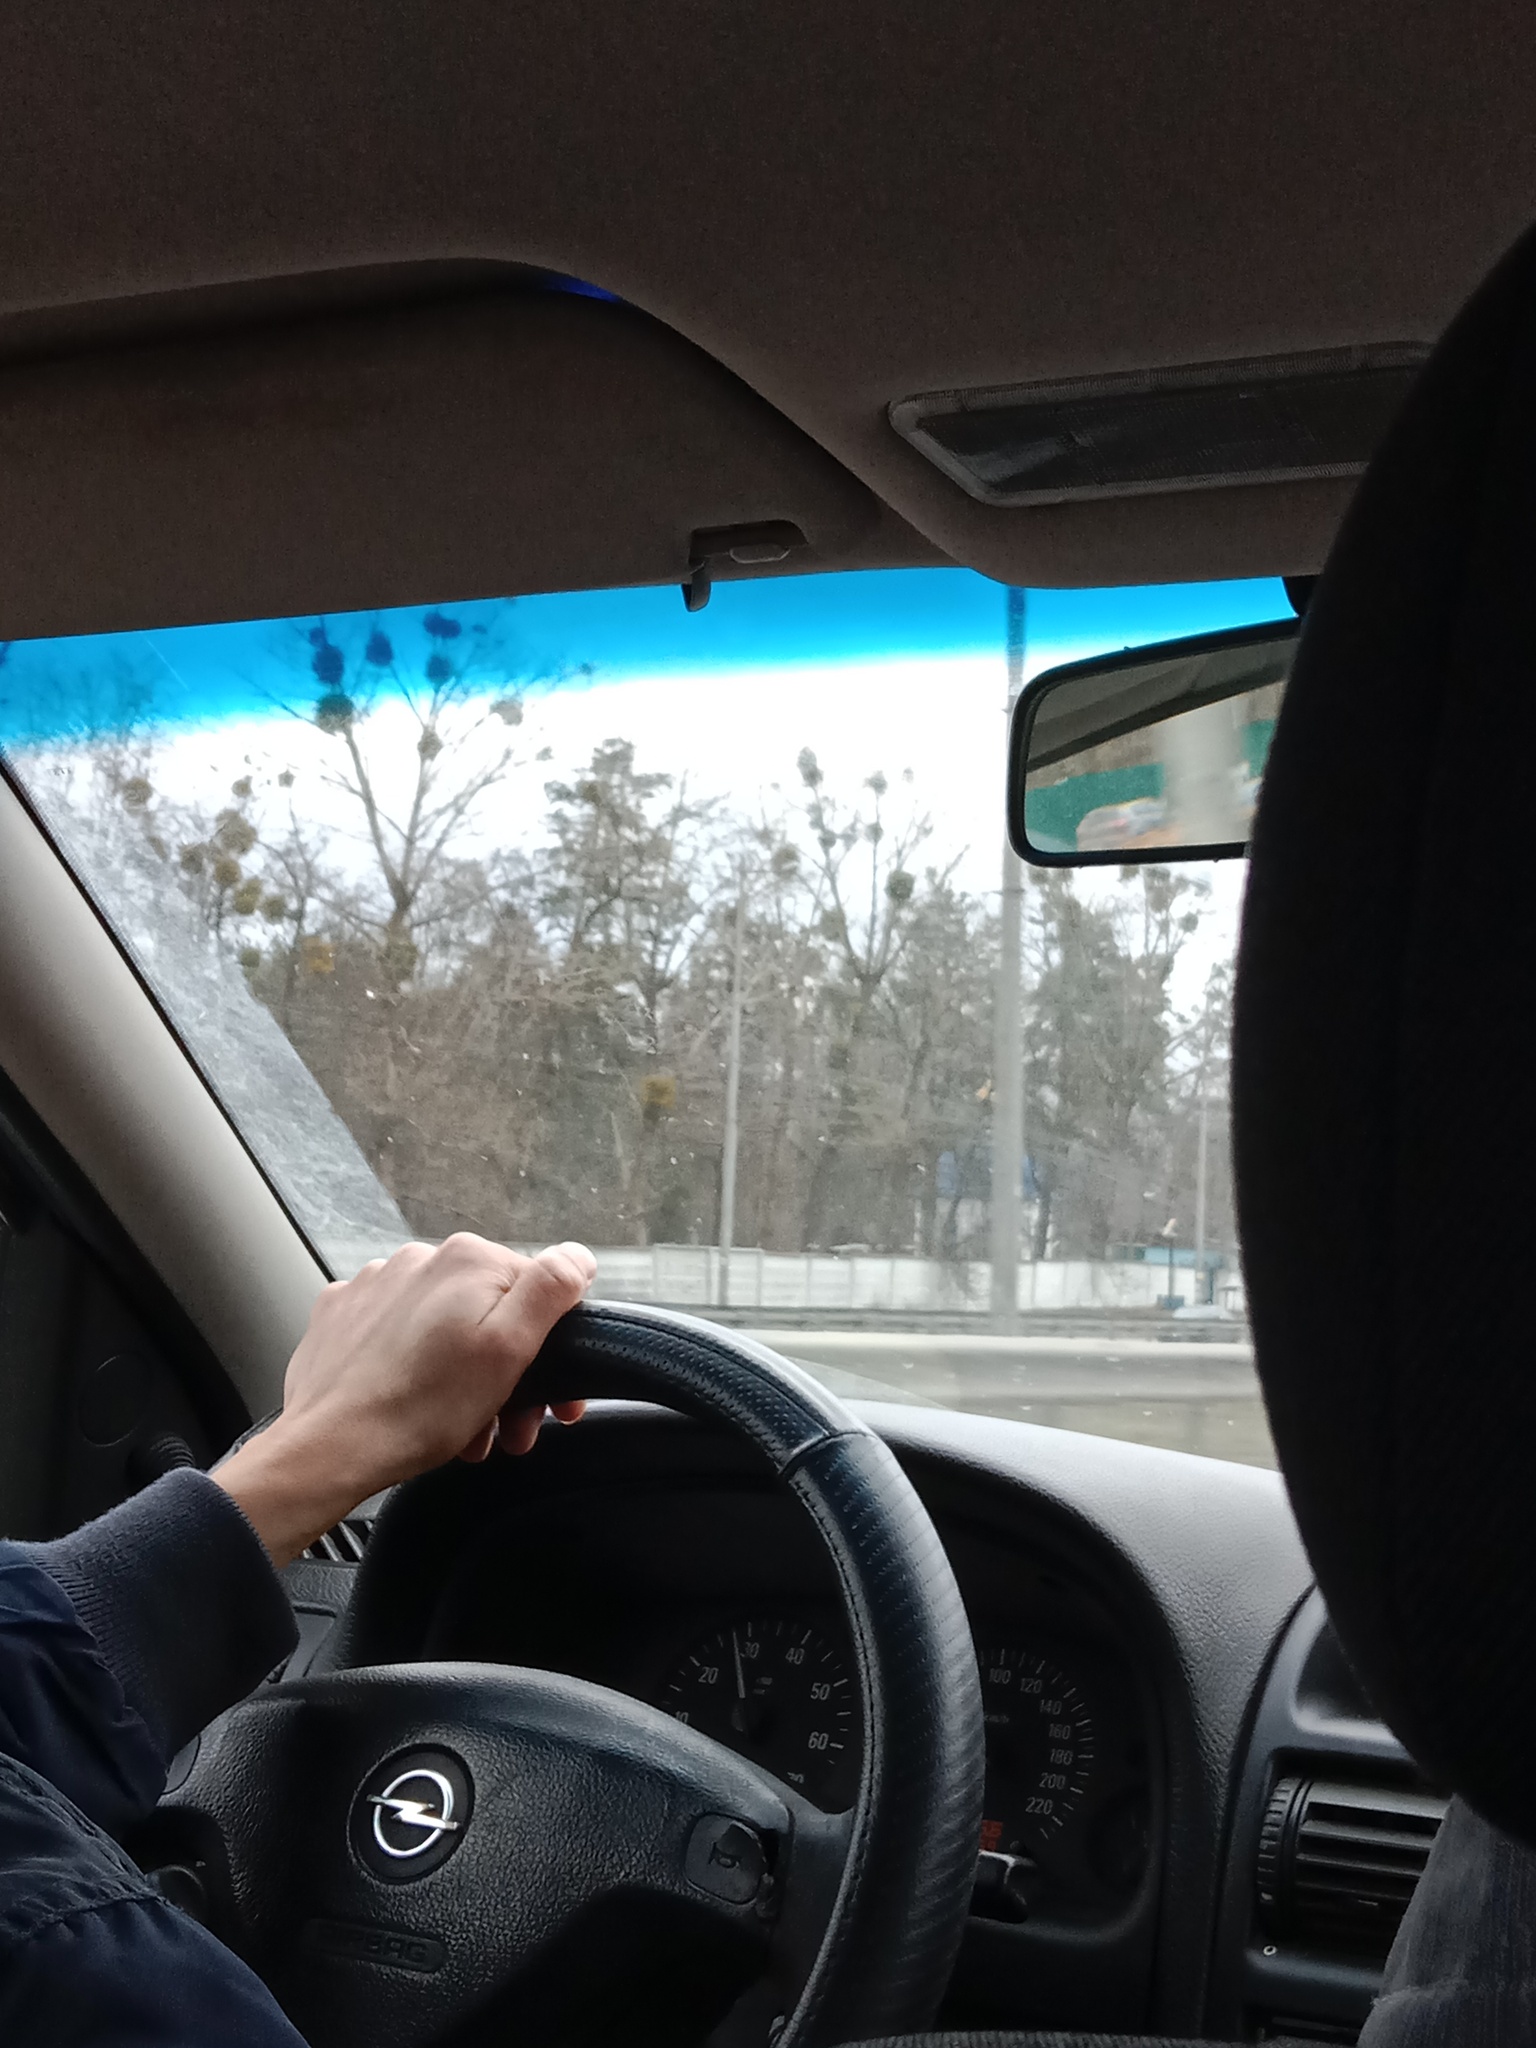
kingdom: Plantae
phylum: Tracheophyta
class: Magnoliopsida
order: Santalales
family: Viscaceae
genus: Viscum
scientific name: Viscum album
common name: Mistletoe
